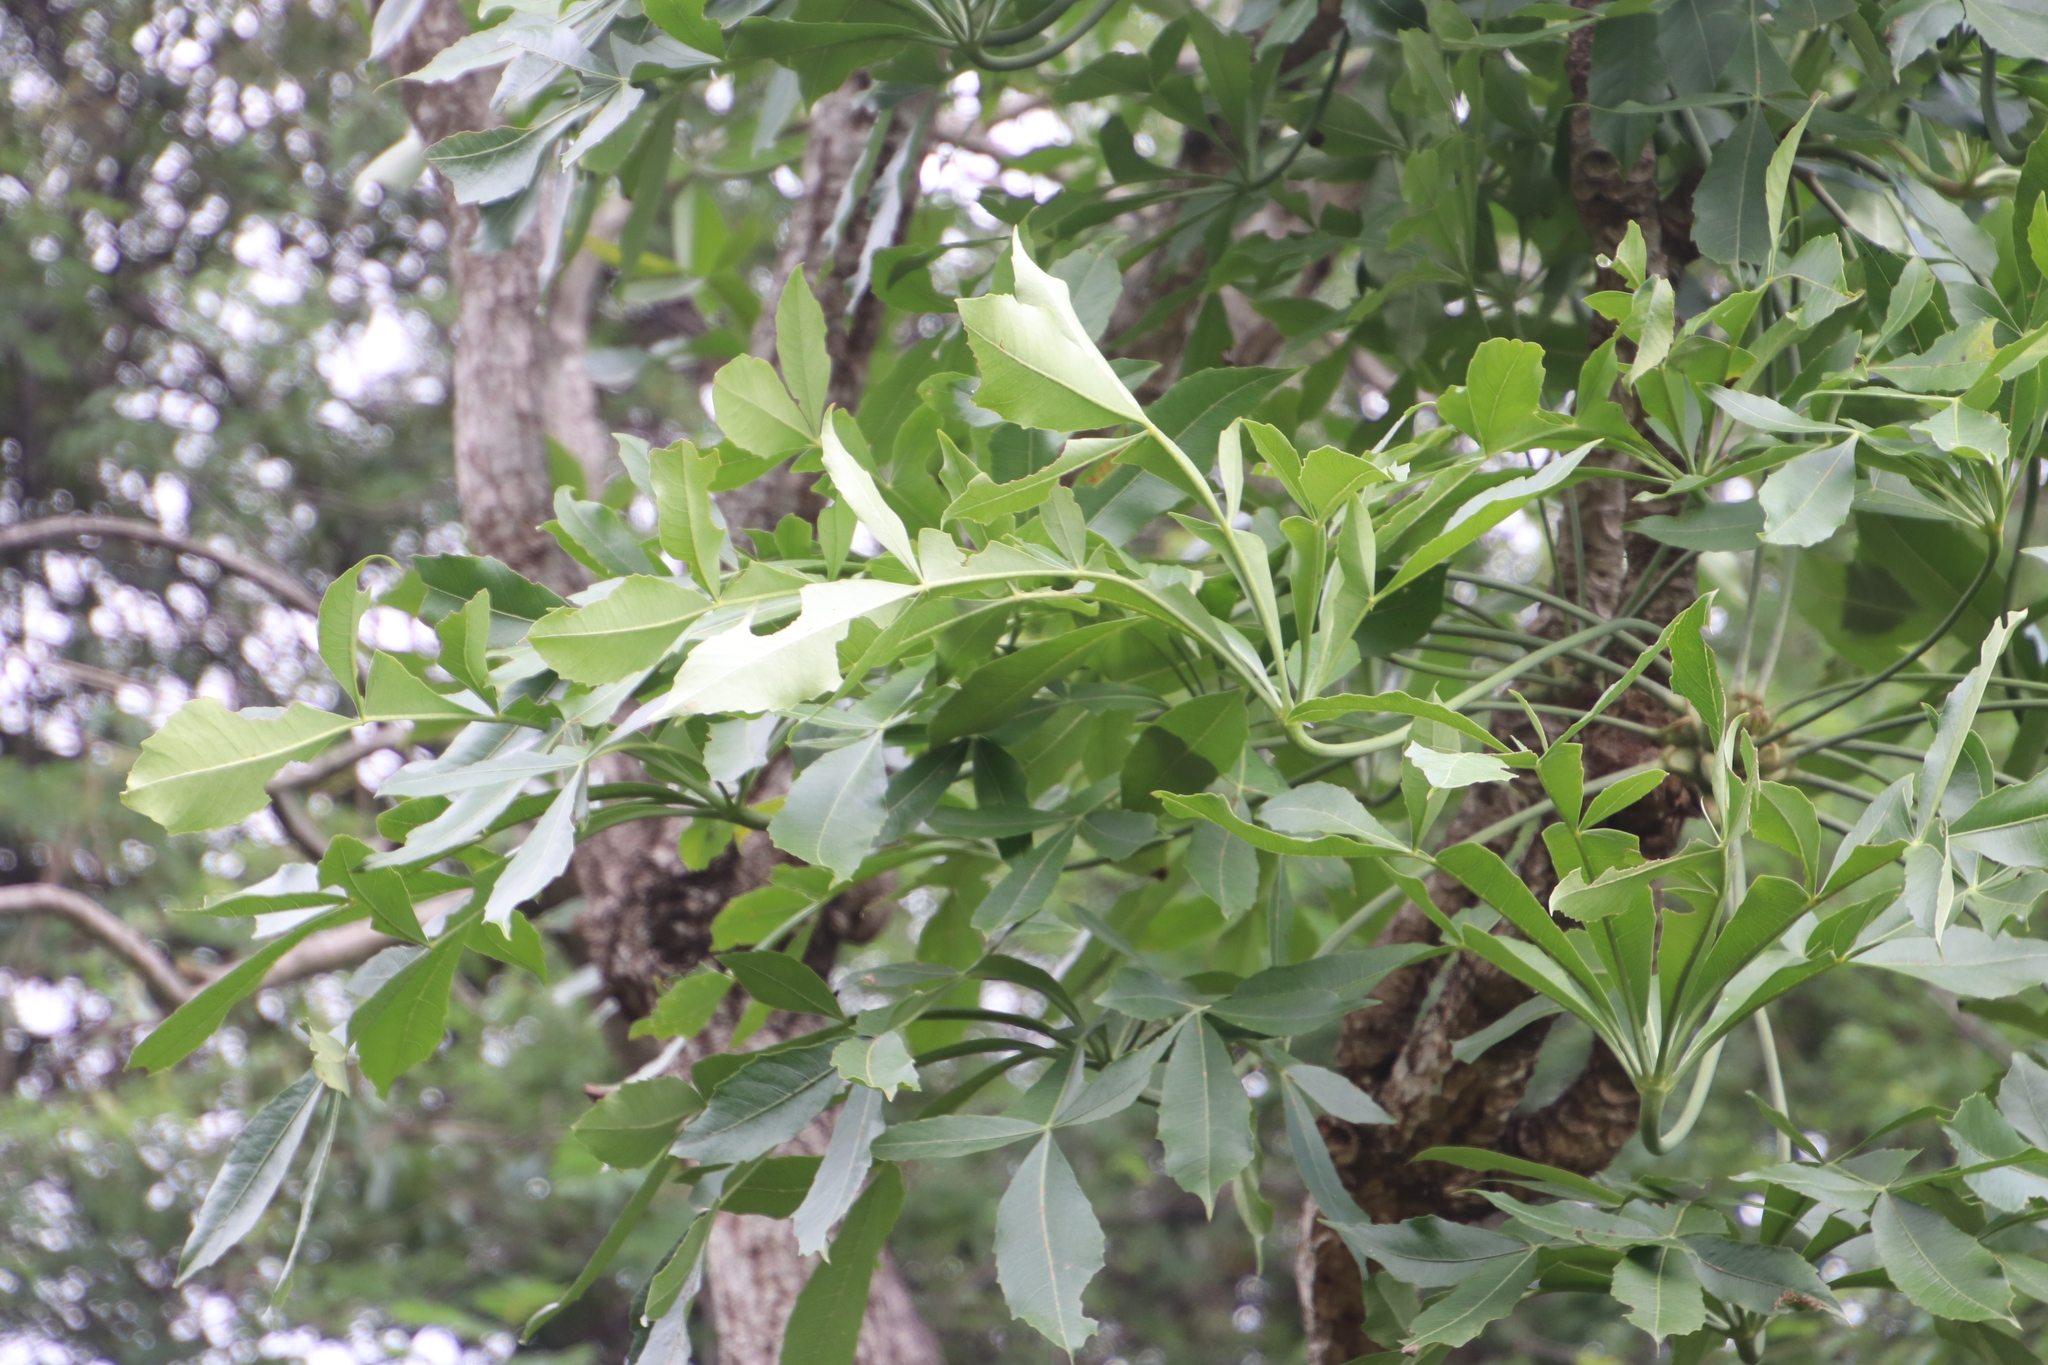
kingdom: Plantae
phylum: Tracheophyta
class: Magnoliopsida
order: Apiales
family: Araliaceae
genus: Cussonia
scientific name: Cussonia spicata
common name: Common cabbagetree
